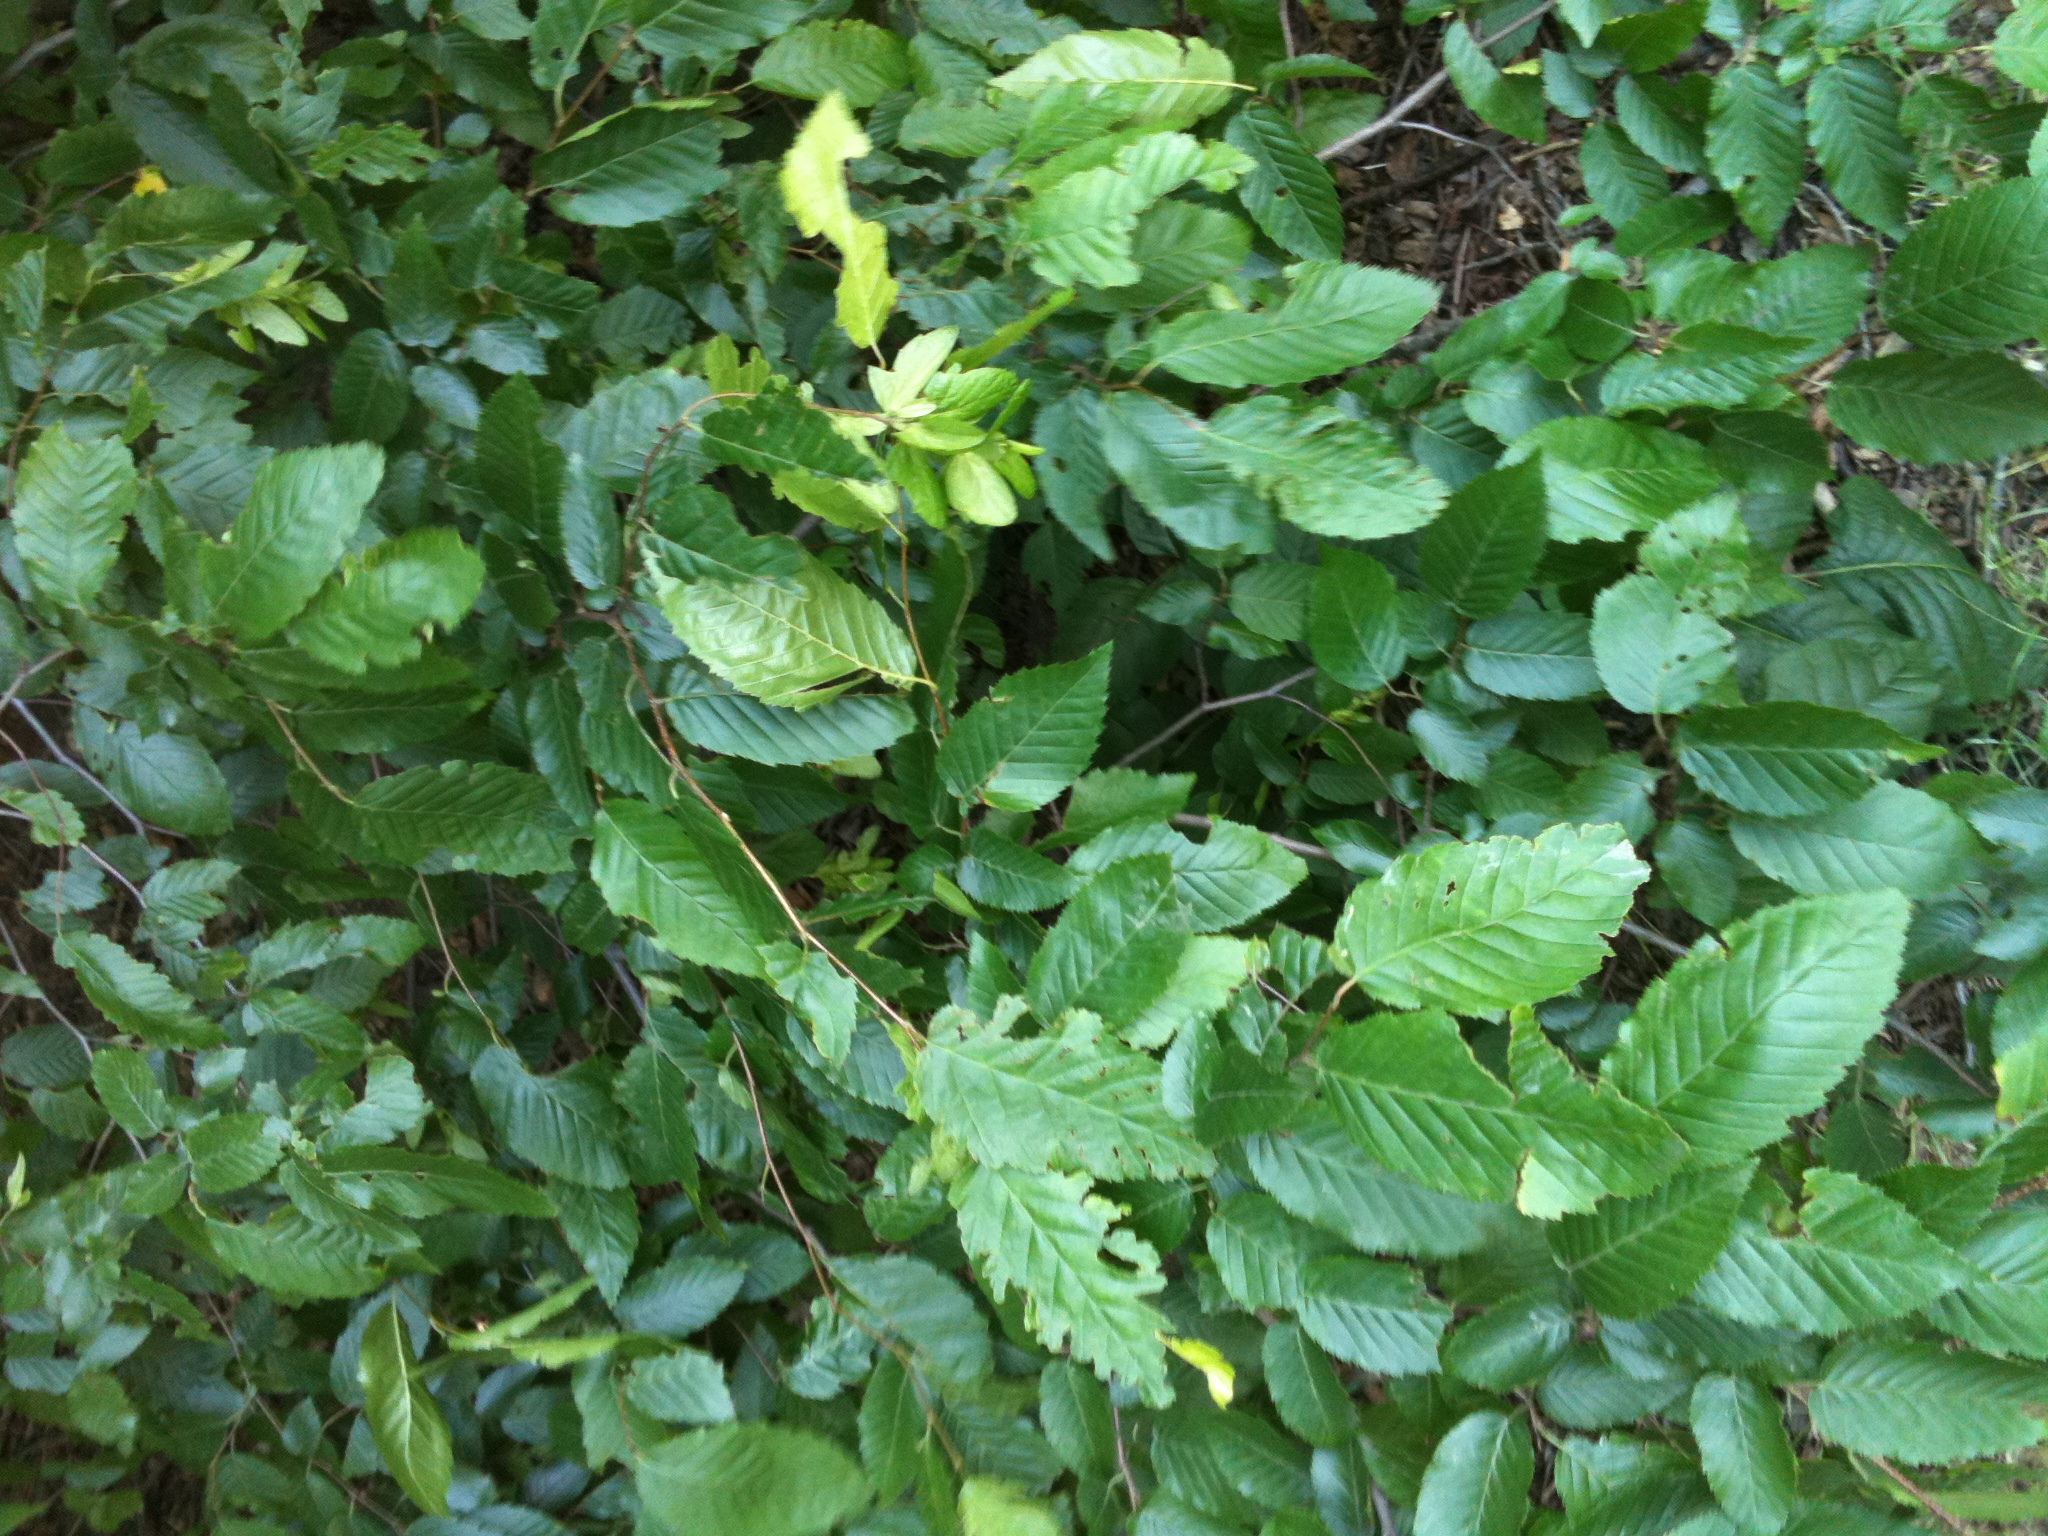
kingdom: Plantae
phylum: Tracheophyta
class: Magnoliopsida
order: Fagales
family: Betulaceae
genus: Carpinus
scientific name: Carpinus caroliniana
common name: American hornbeam
